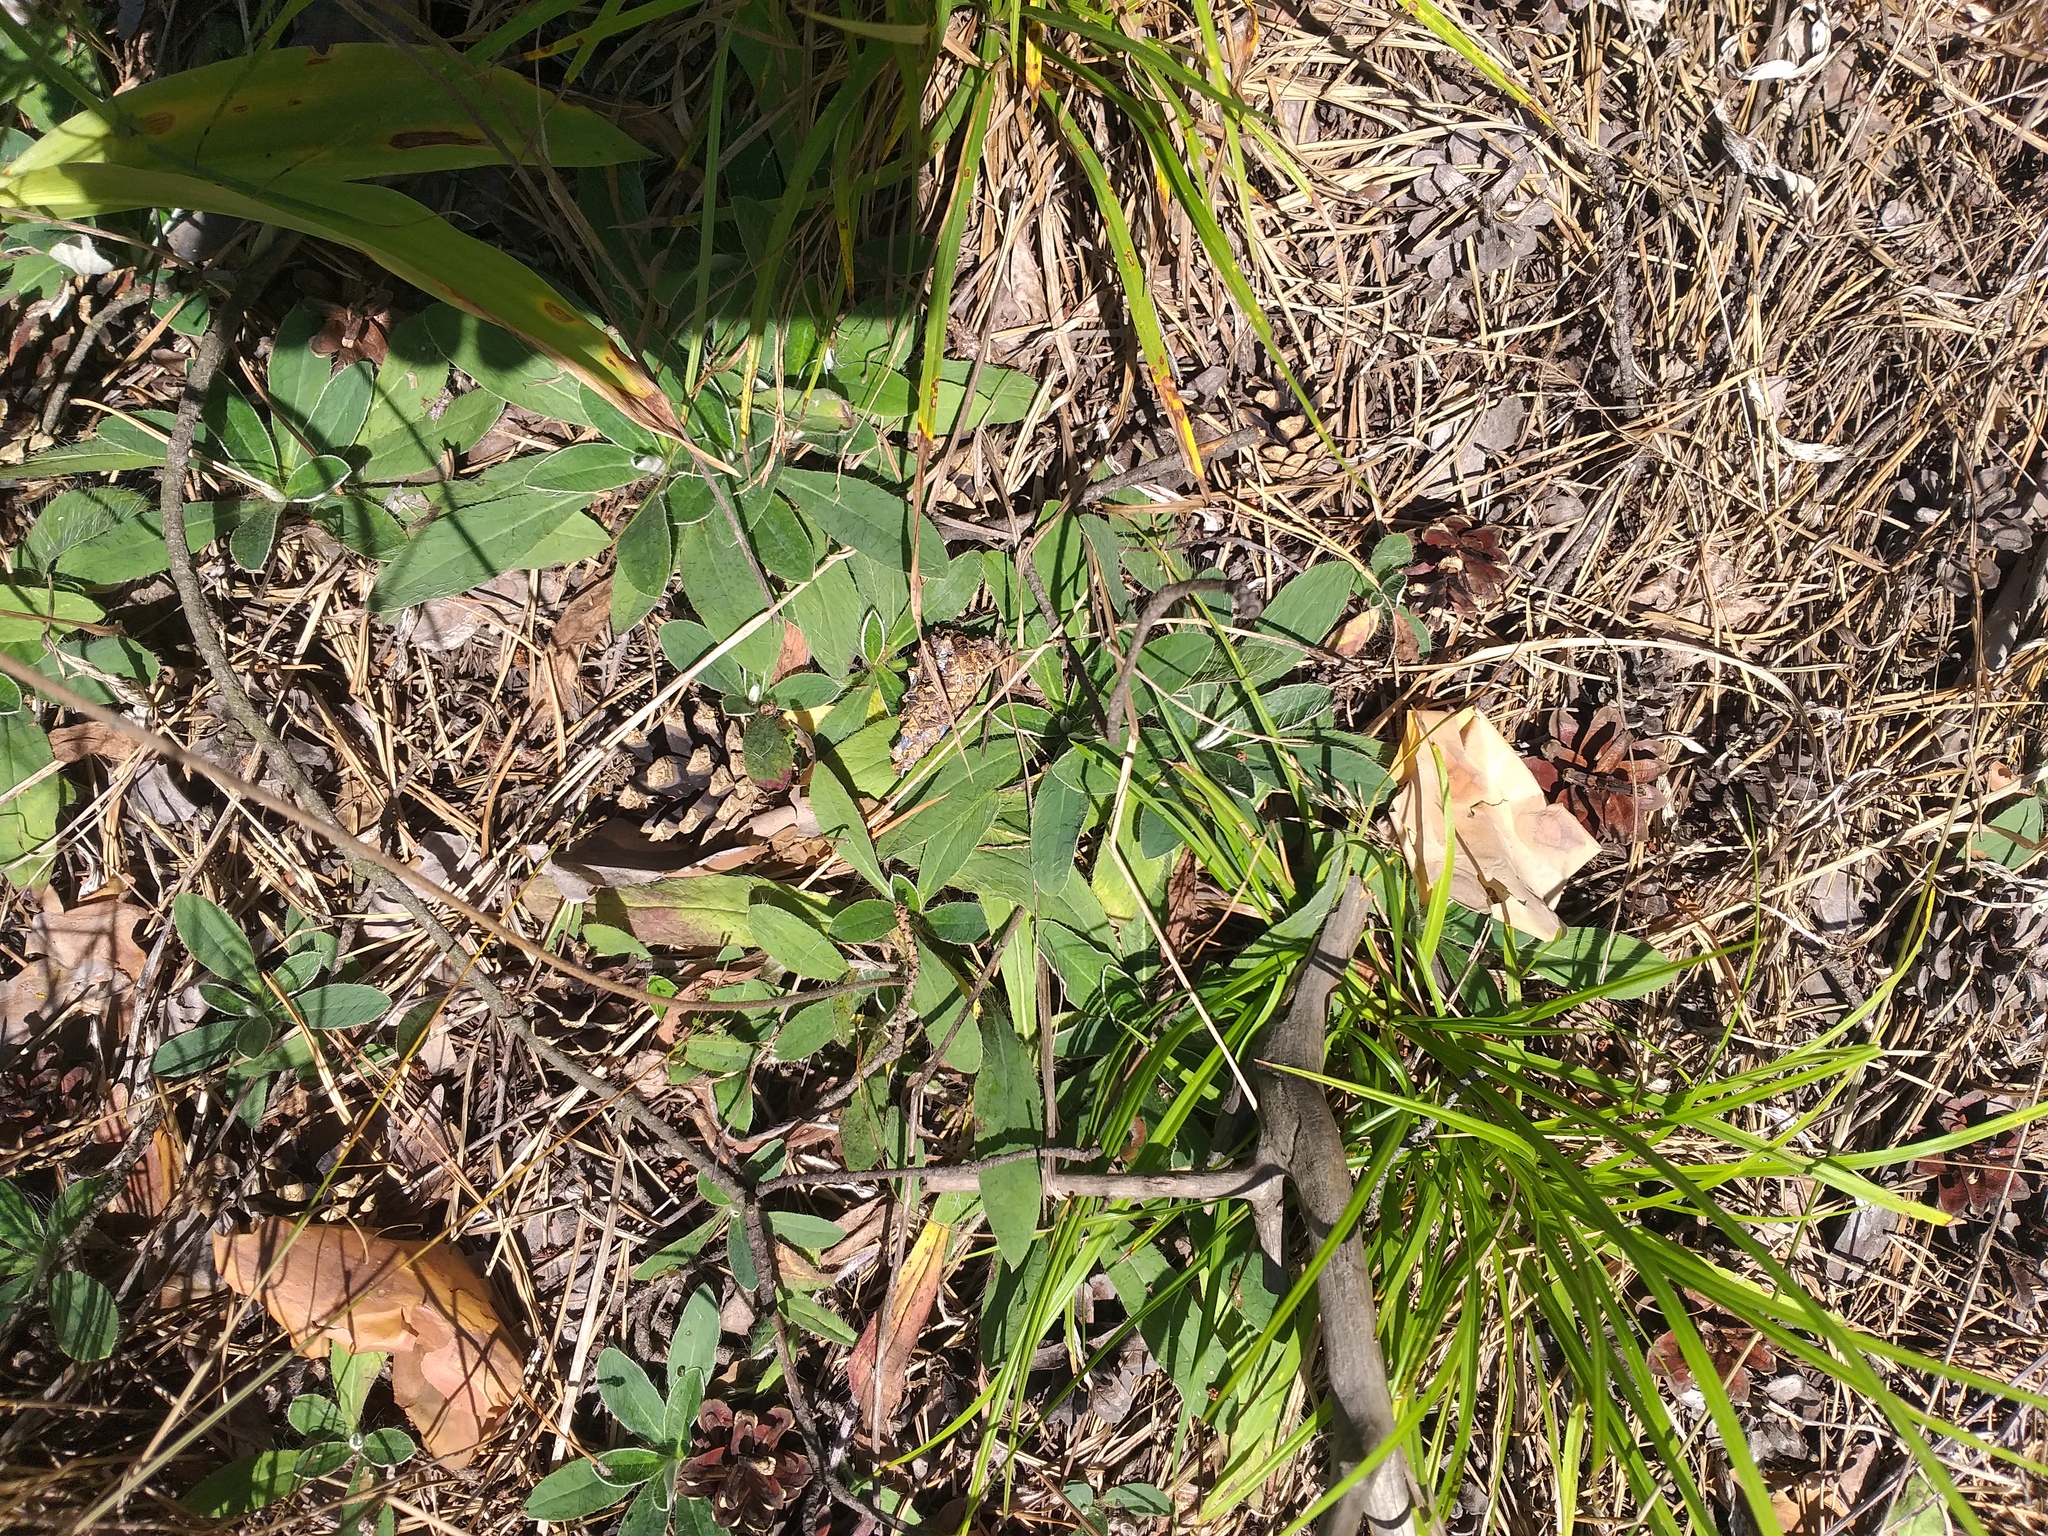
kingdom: Plantae
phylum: Tracheophyta
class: Magnoliopsida
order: Asterales
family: Asteraceae
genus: Pilosella
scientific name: Pilosella officinarum
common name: Mouse-ear hawkweed
